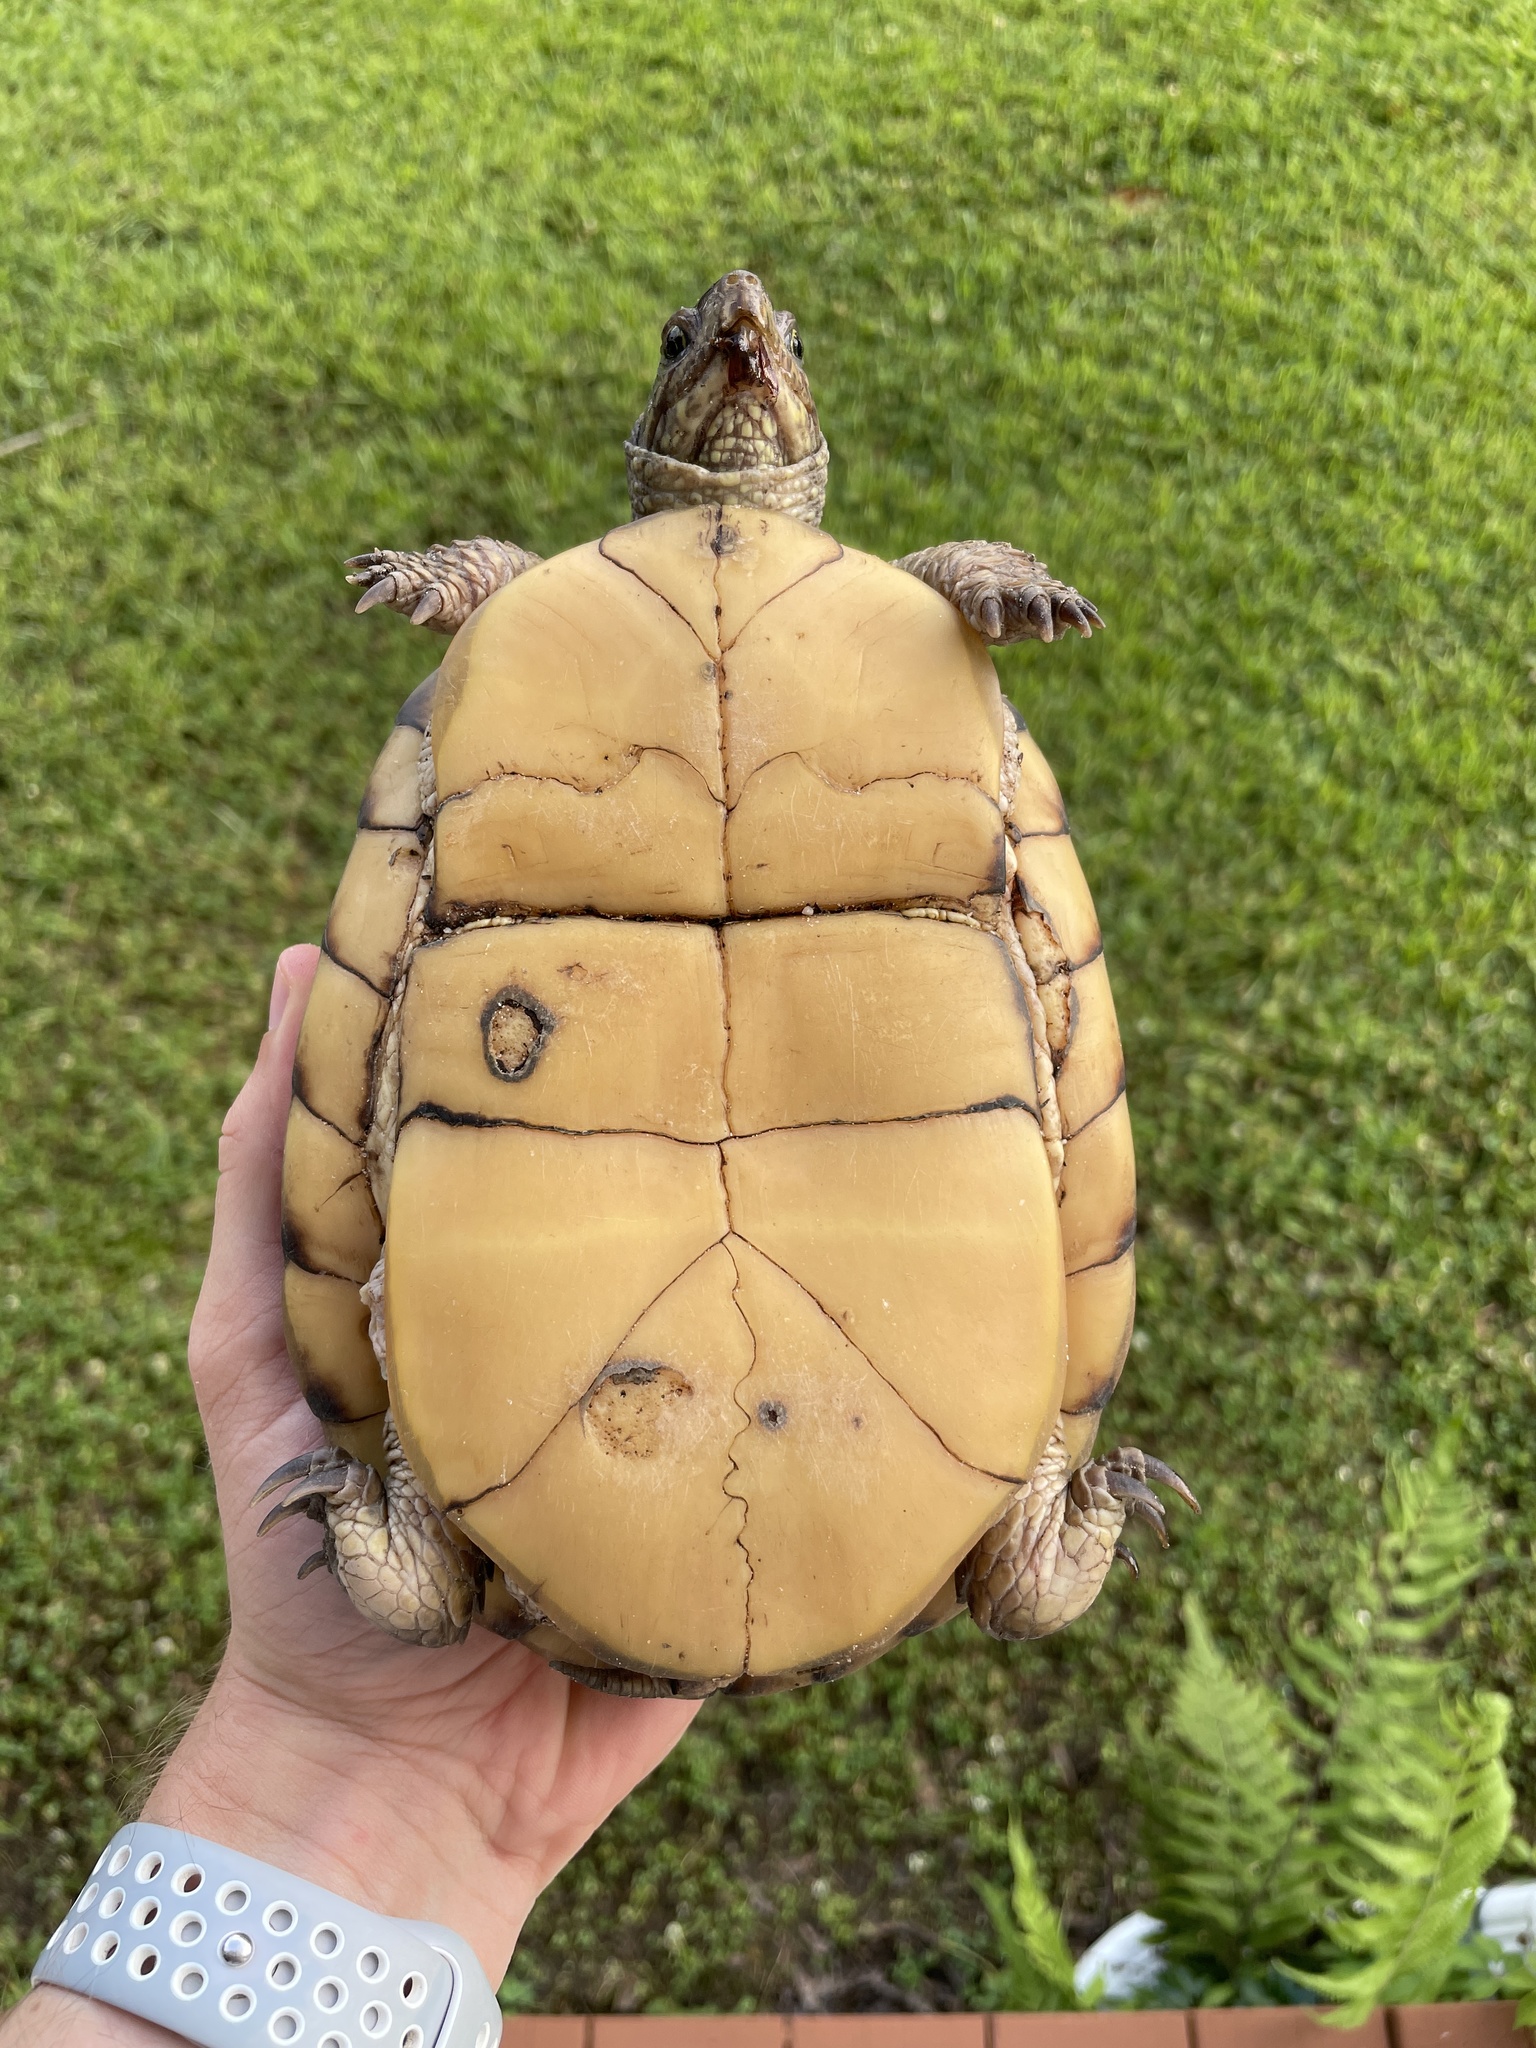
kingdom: Animalia
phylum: Chordata
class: Testudines
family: Emydidae
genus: Terrapene
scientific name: Terrapene carolina
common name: Common box turtle
